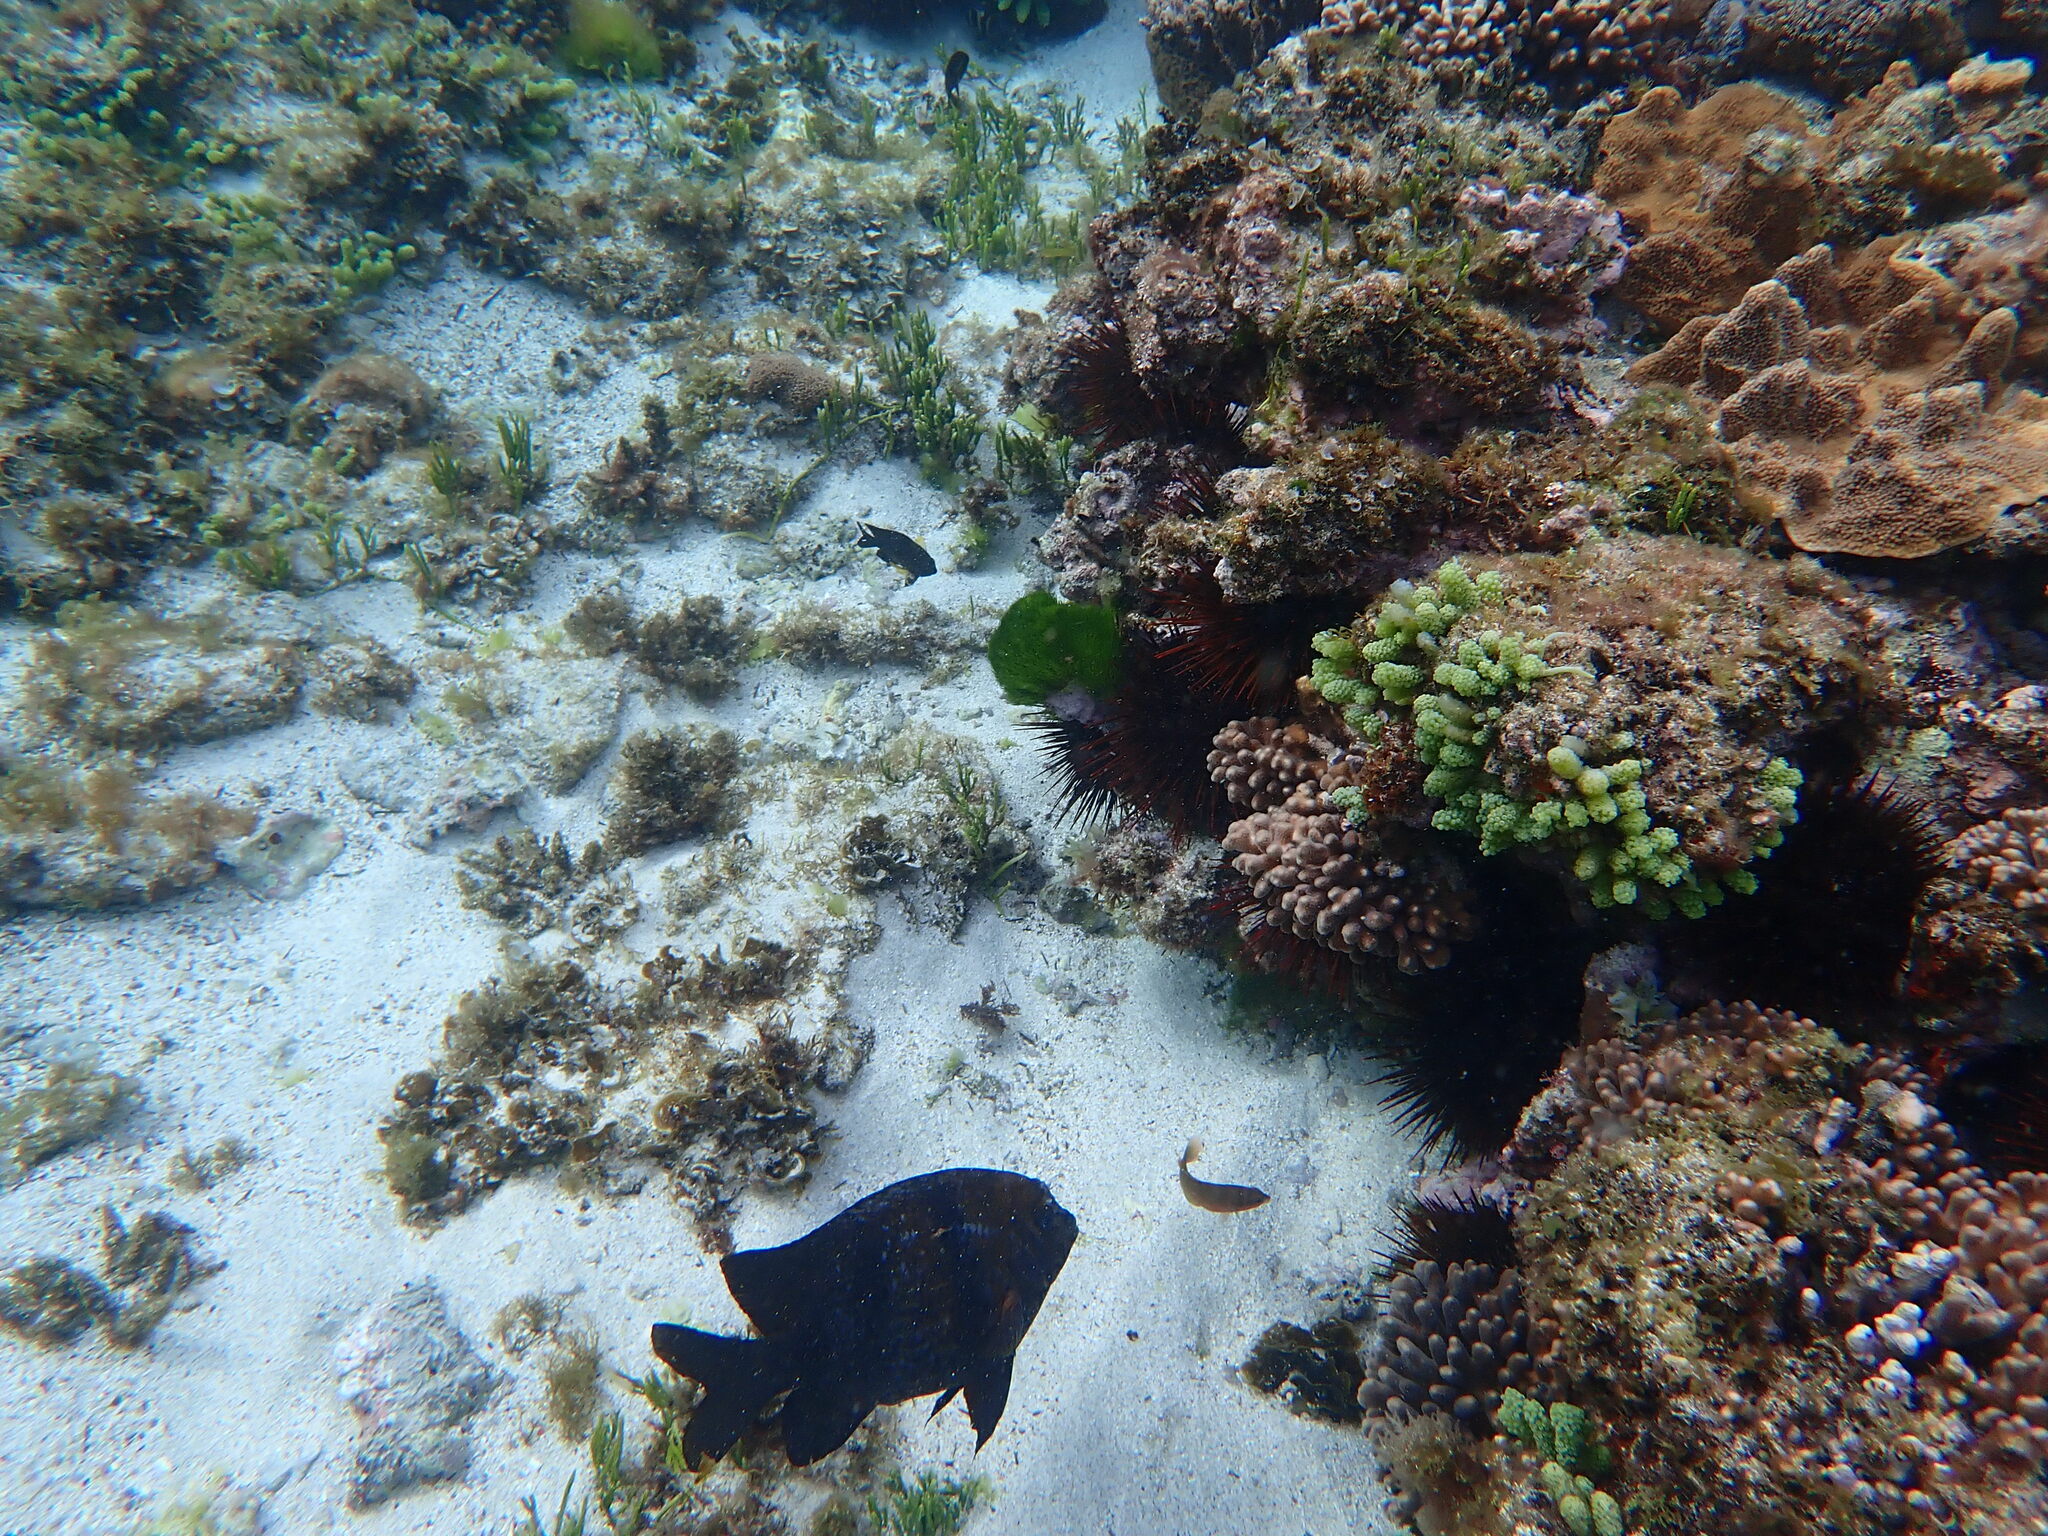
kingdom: Animalia
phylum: Chordata
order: Perciformes
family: Pomacentridae
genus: Parma
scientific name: Parma polylepis
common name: Banded parma
